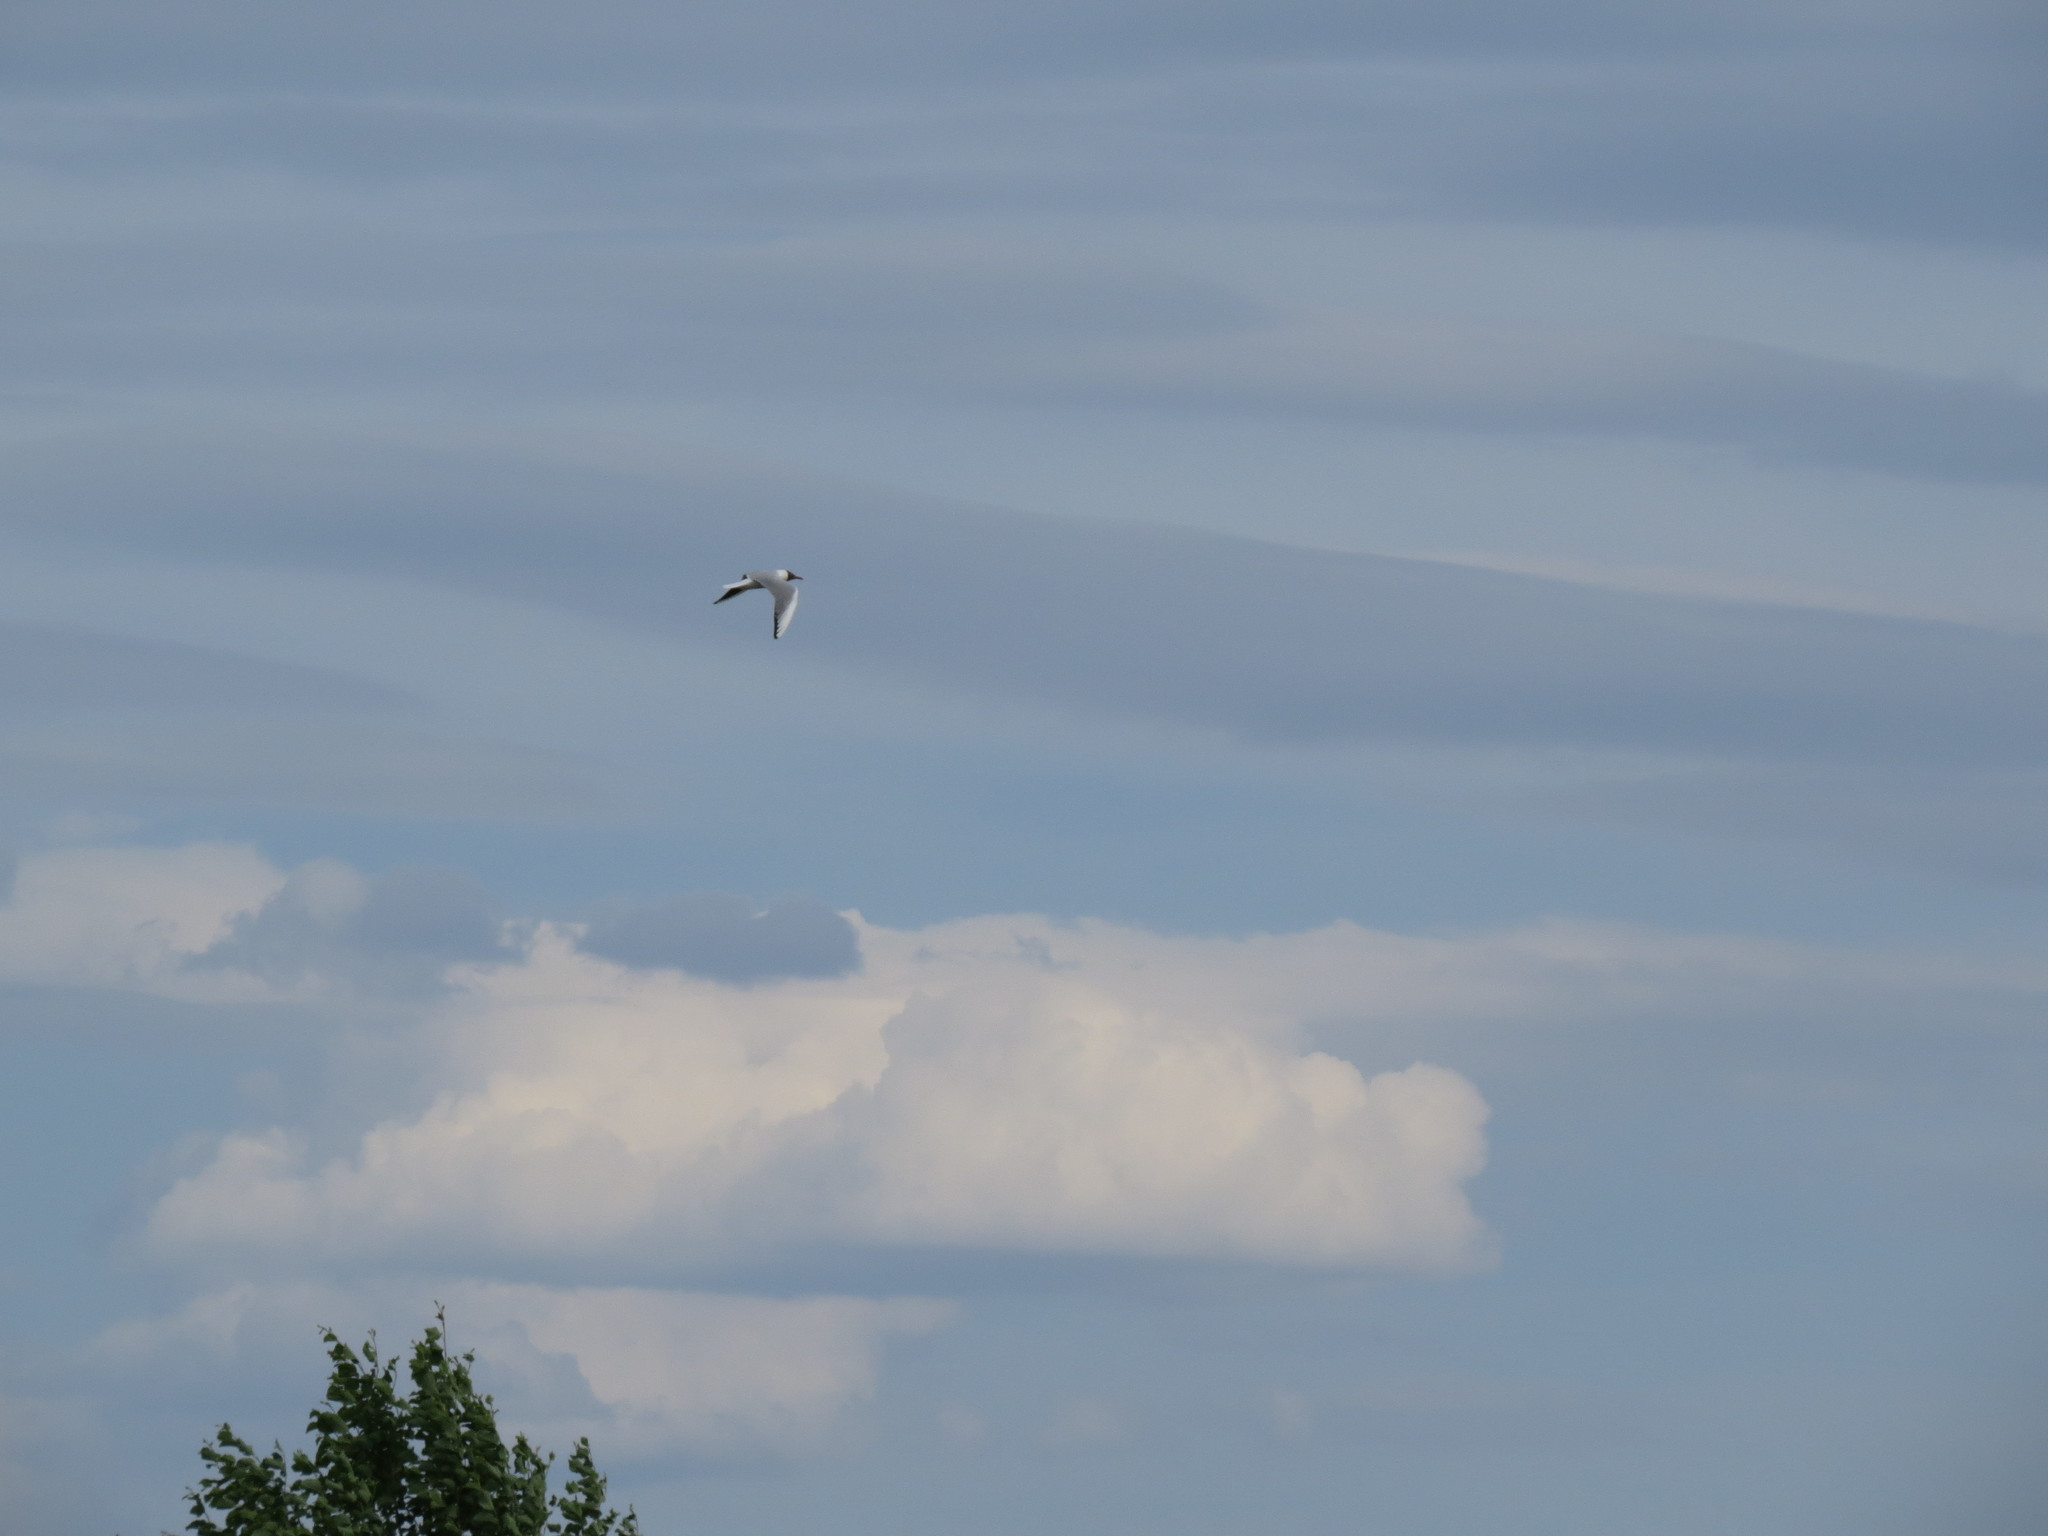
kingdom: Animalia
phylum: Chordata
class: Aves
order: Charadriiformes
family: Laridae
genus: Chroicocephalus
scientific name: Chroicocephalus ridibundus
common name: Black-headed gull
